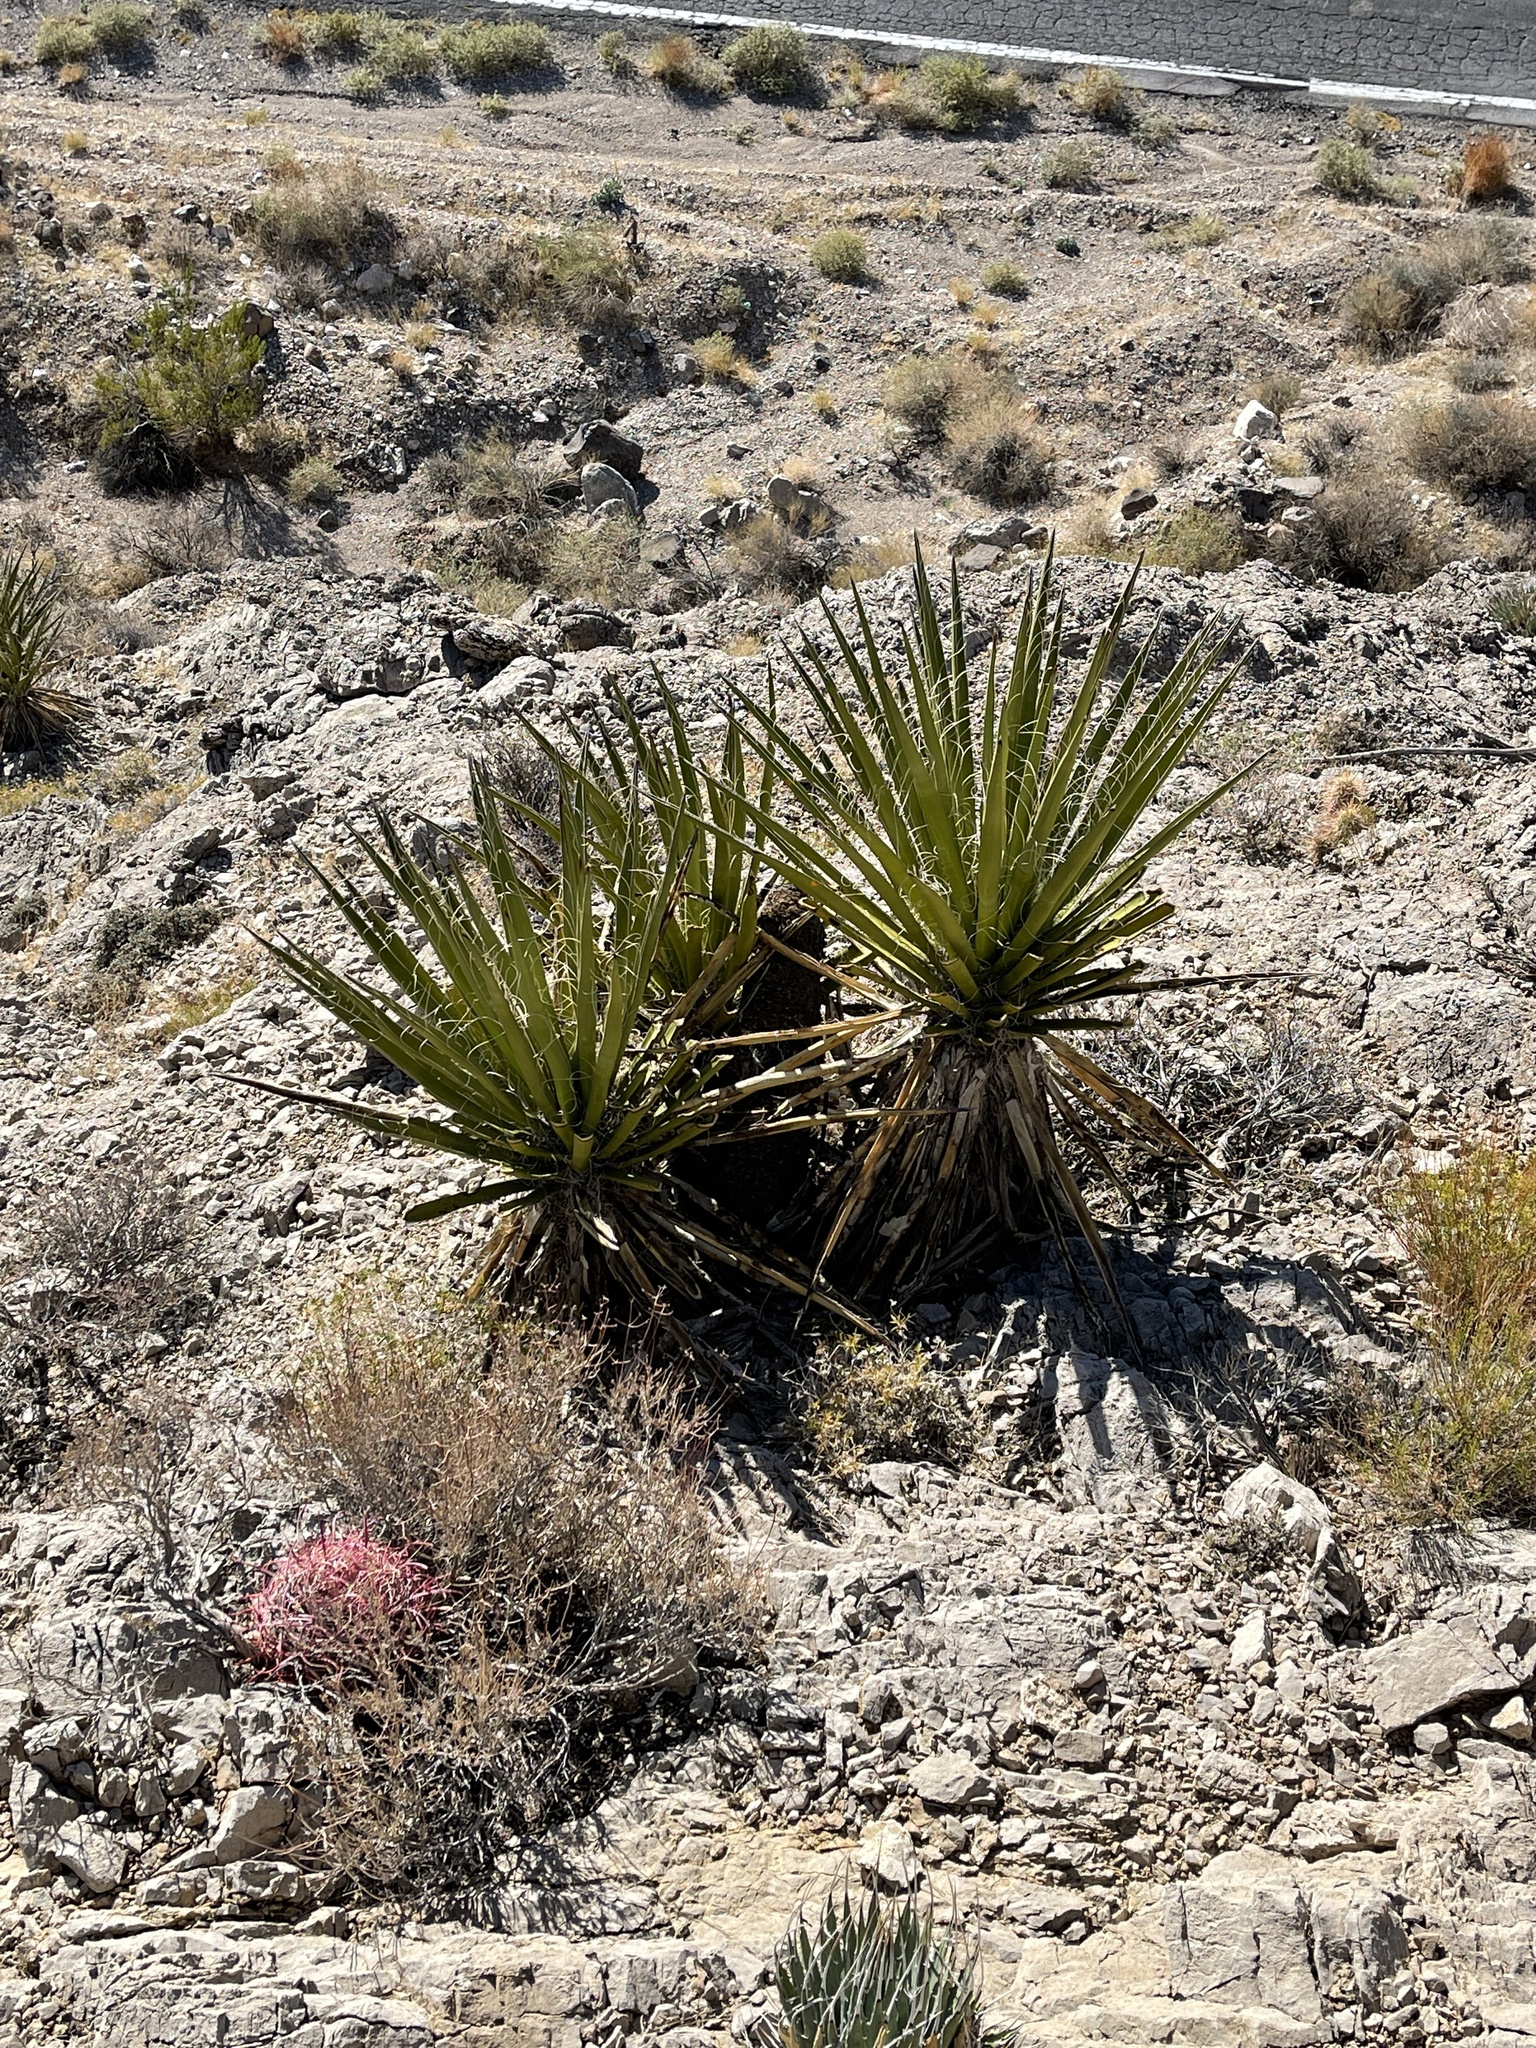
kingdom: Plantae
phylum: Tracheophyta
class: Liliopsida
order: Asparagales
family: Asparagaceae
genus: Yucca
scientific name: Yucca schidigera
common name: Mojave yucca
